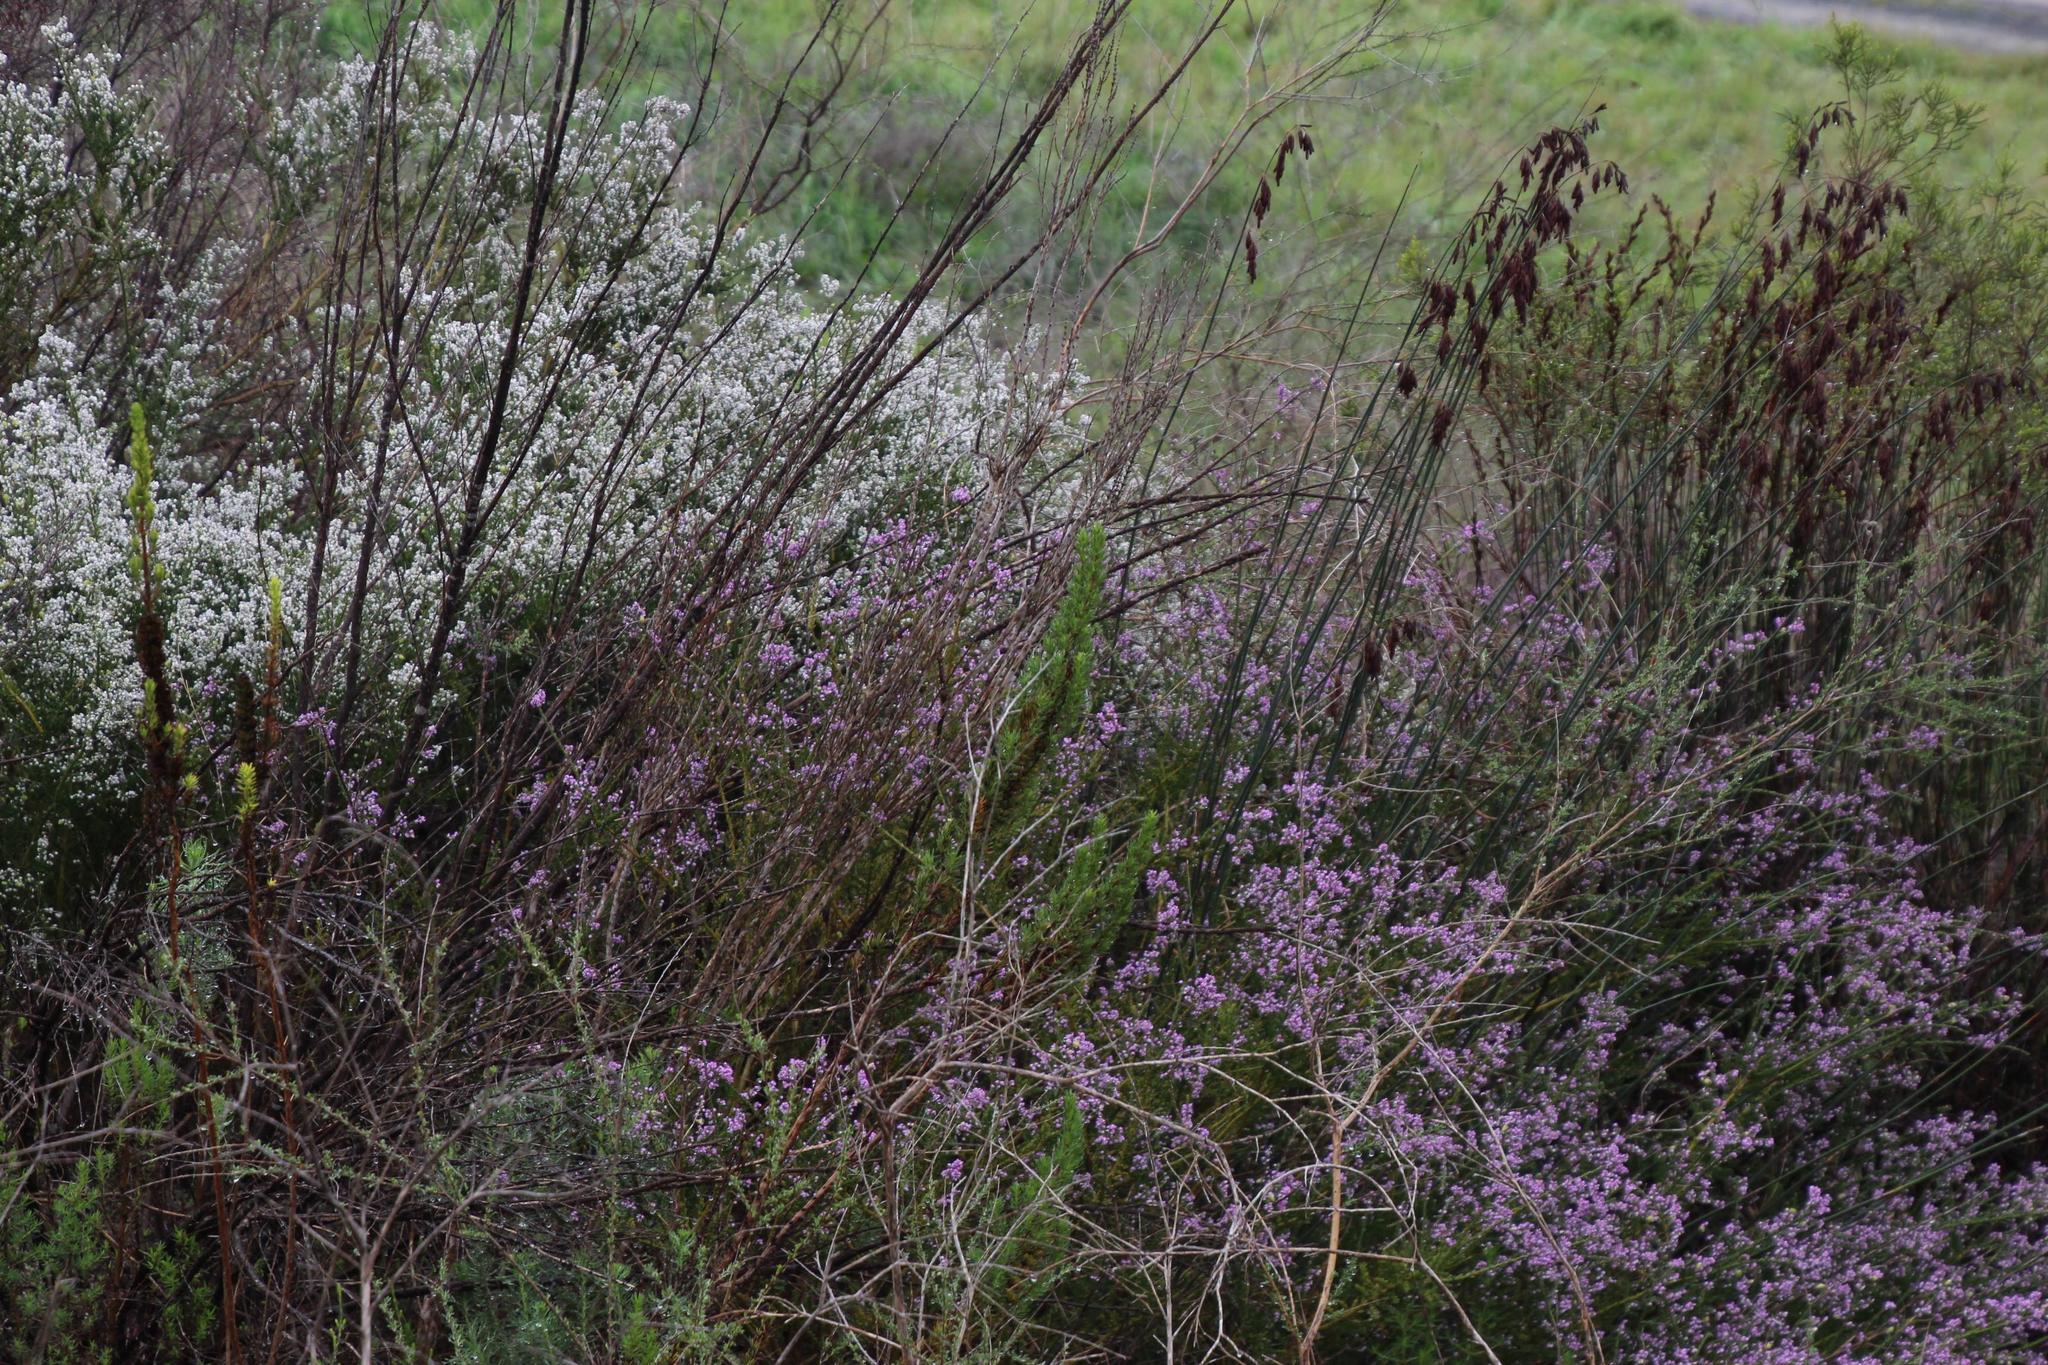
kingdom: Plantae
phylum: Tracheophyta
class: Magnoliopsida
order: Fabales
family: Polygalaceae
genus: Muraltia
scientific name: Muraltia spinosa
